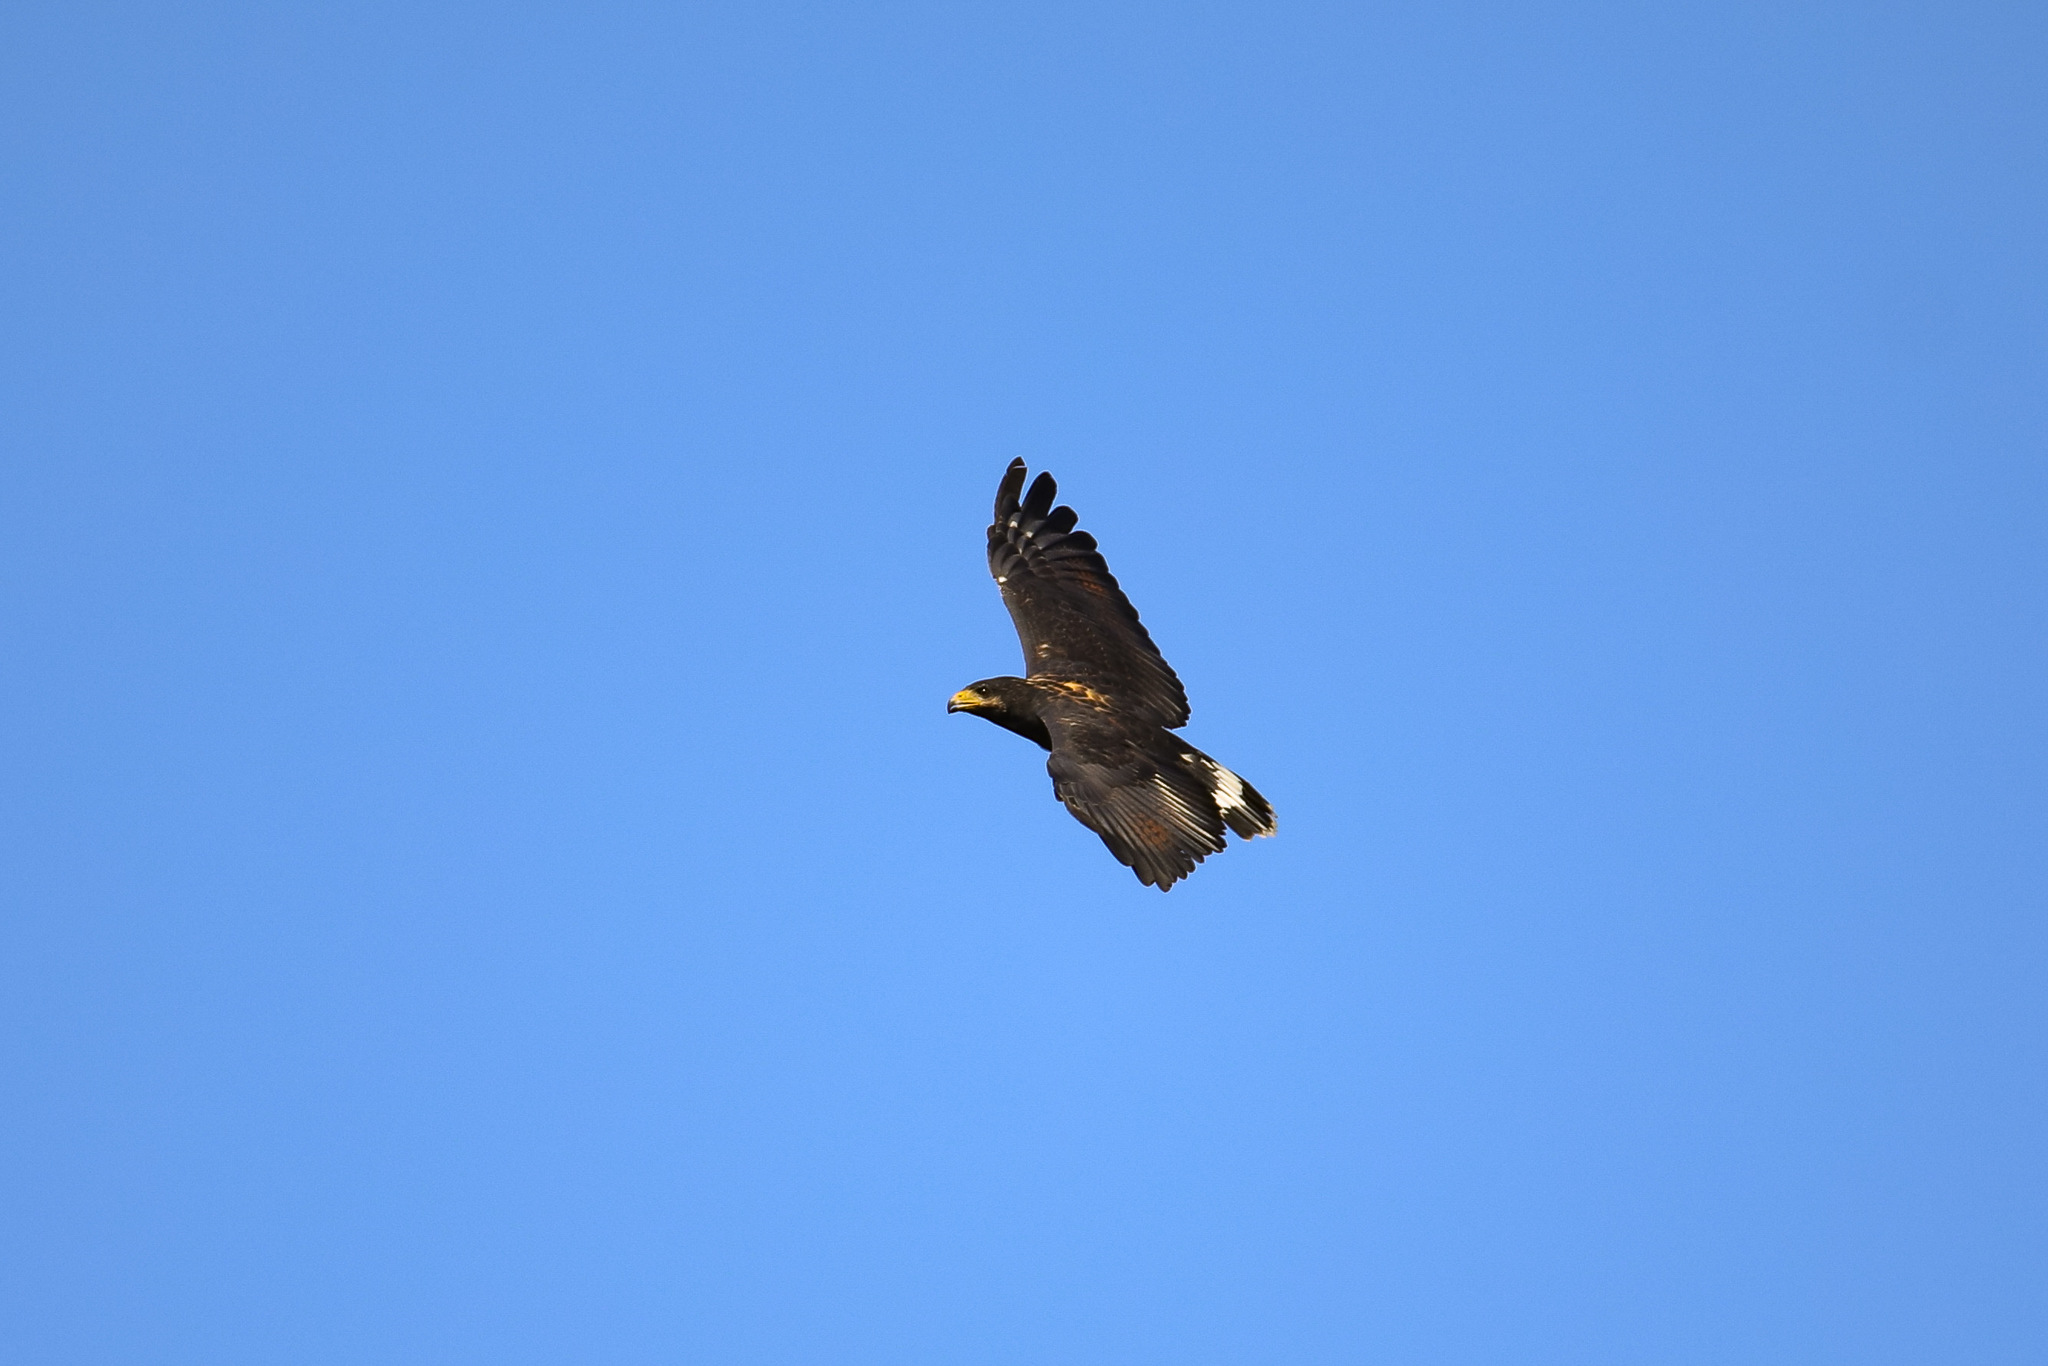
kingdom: Animalia
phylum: Chordata
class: Aves
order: Accipitriformes
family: Accipitridae
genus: Buteogallus
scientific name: Buteogallus anthracinus
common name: Common black hawk
